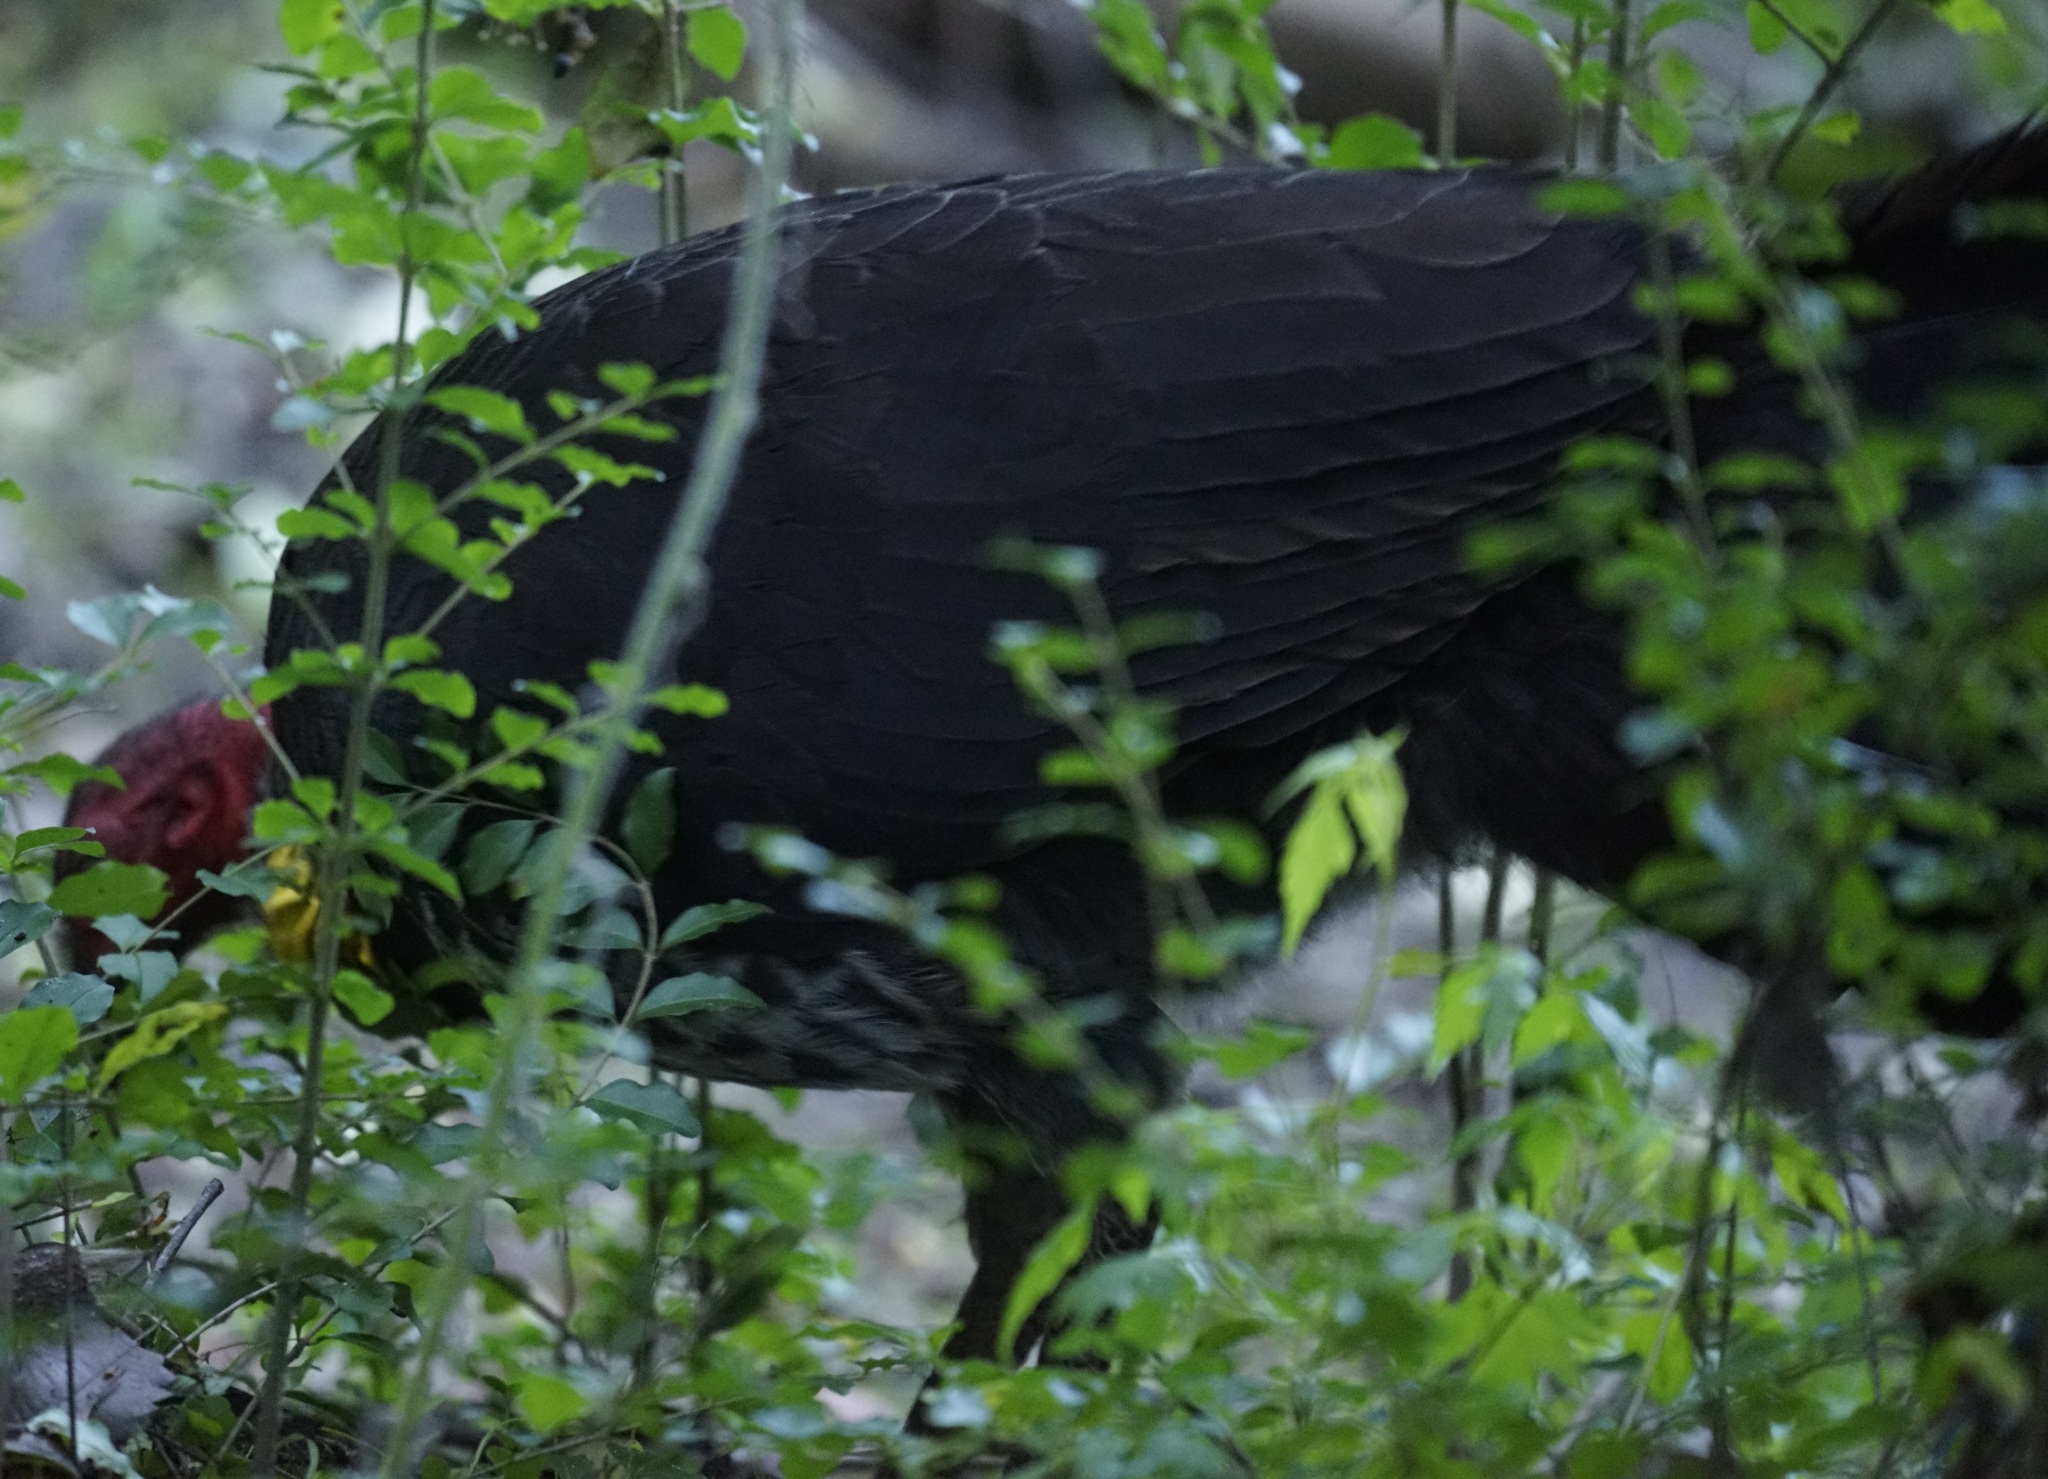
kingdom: Animalia
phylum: Chordata
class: Aves
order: Galliformes
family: Megapodiidae
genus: Alectura
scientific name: Alectura lathami
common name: Australian brushturkey
